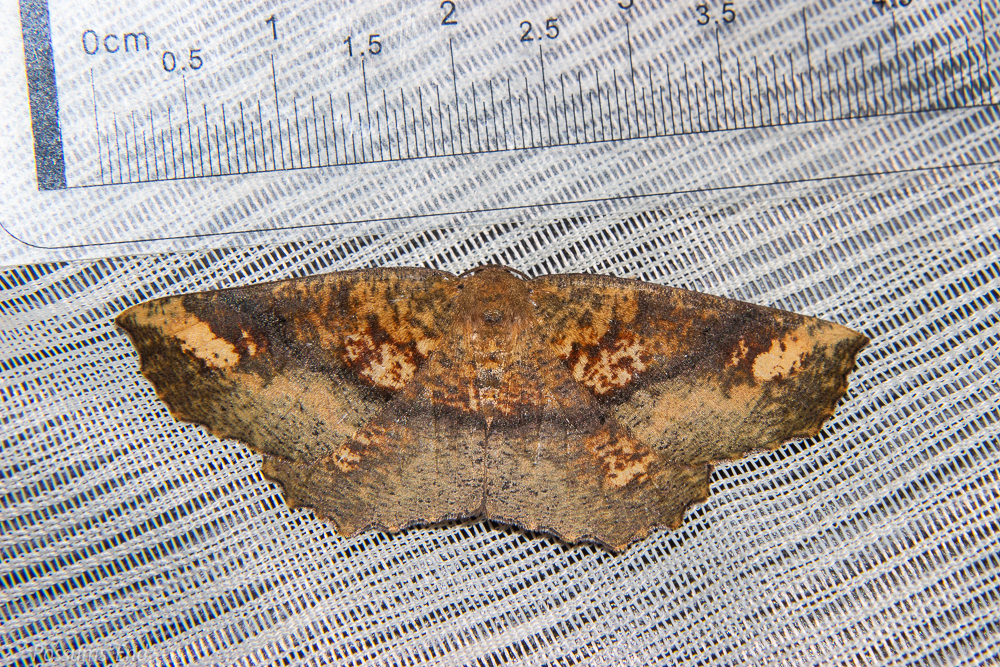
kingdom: Animalia
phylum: Arthropoda
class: Insecta
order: Lepidoptera
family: Geometridae
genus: Xyridacma
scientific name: Xyridacma ustaria
